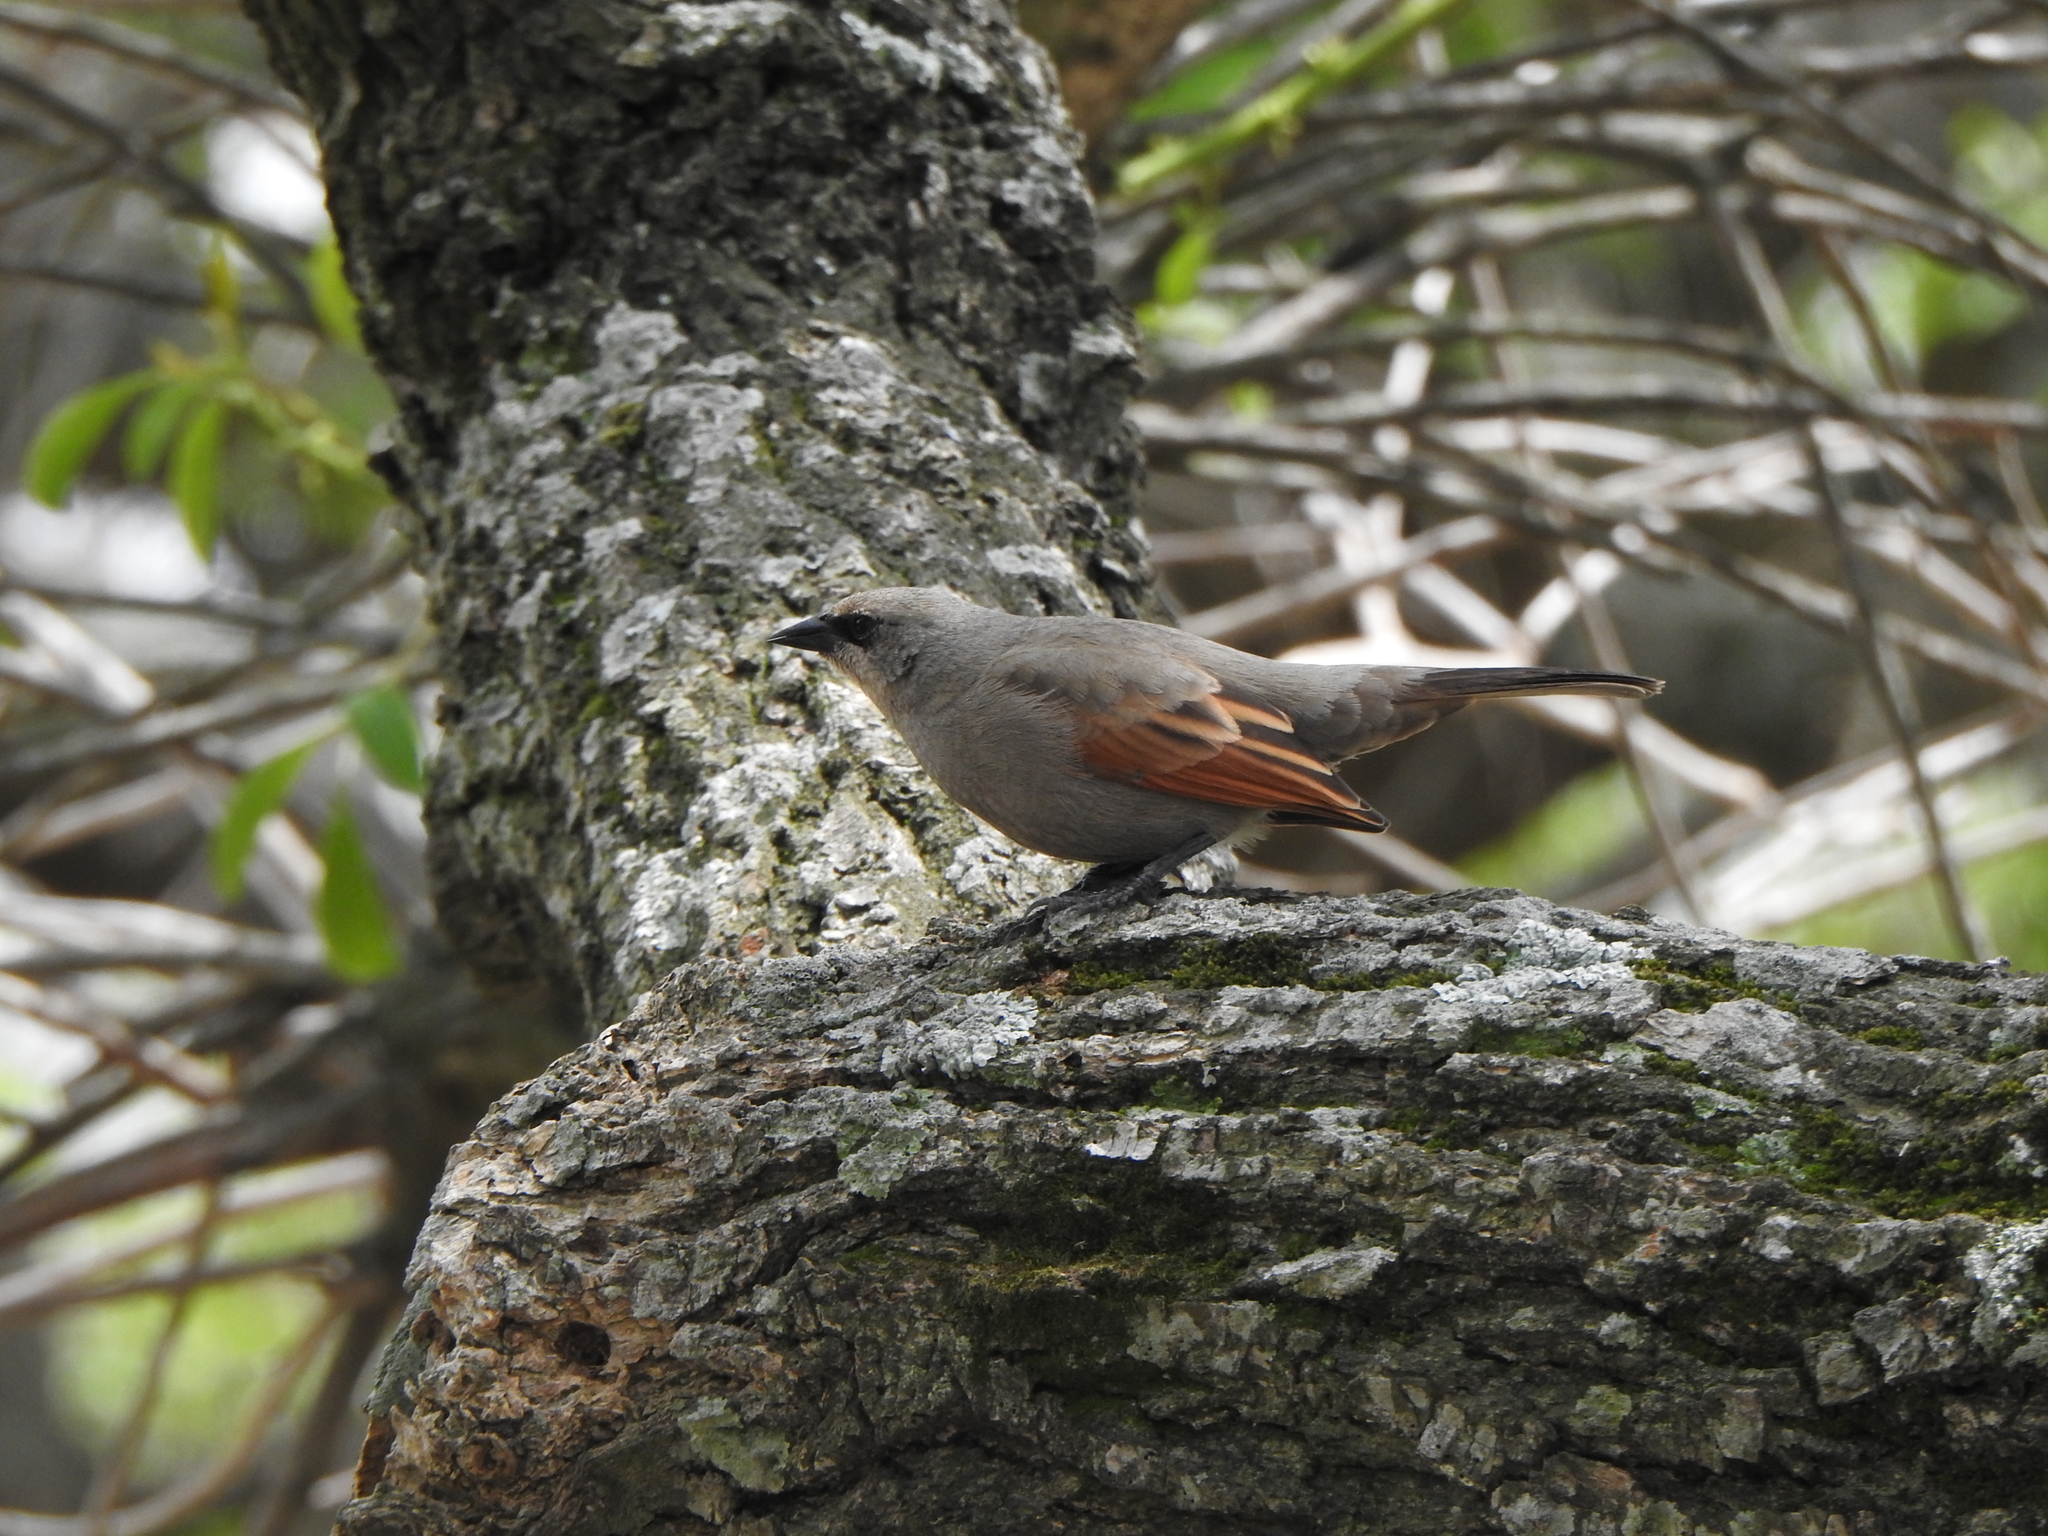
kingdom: Animalia
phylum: Chordata
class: Aves
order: Passeriformes
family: Icteridae
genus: Agelaioides
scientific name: Agelaioides badius
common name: Baywing
